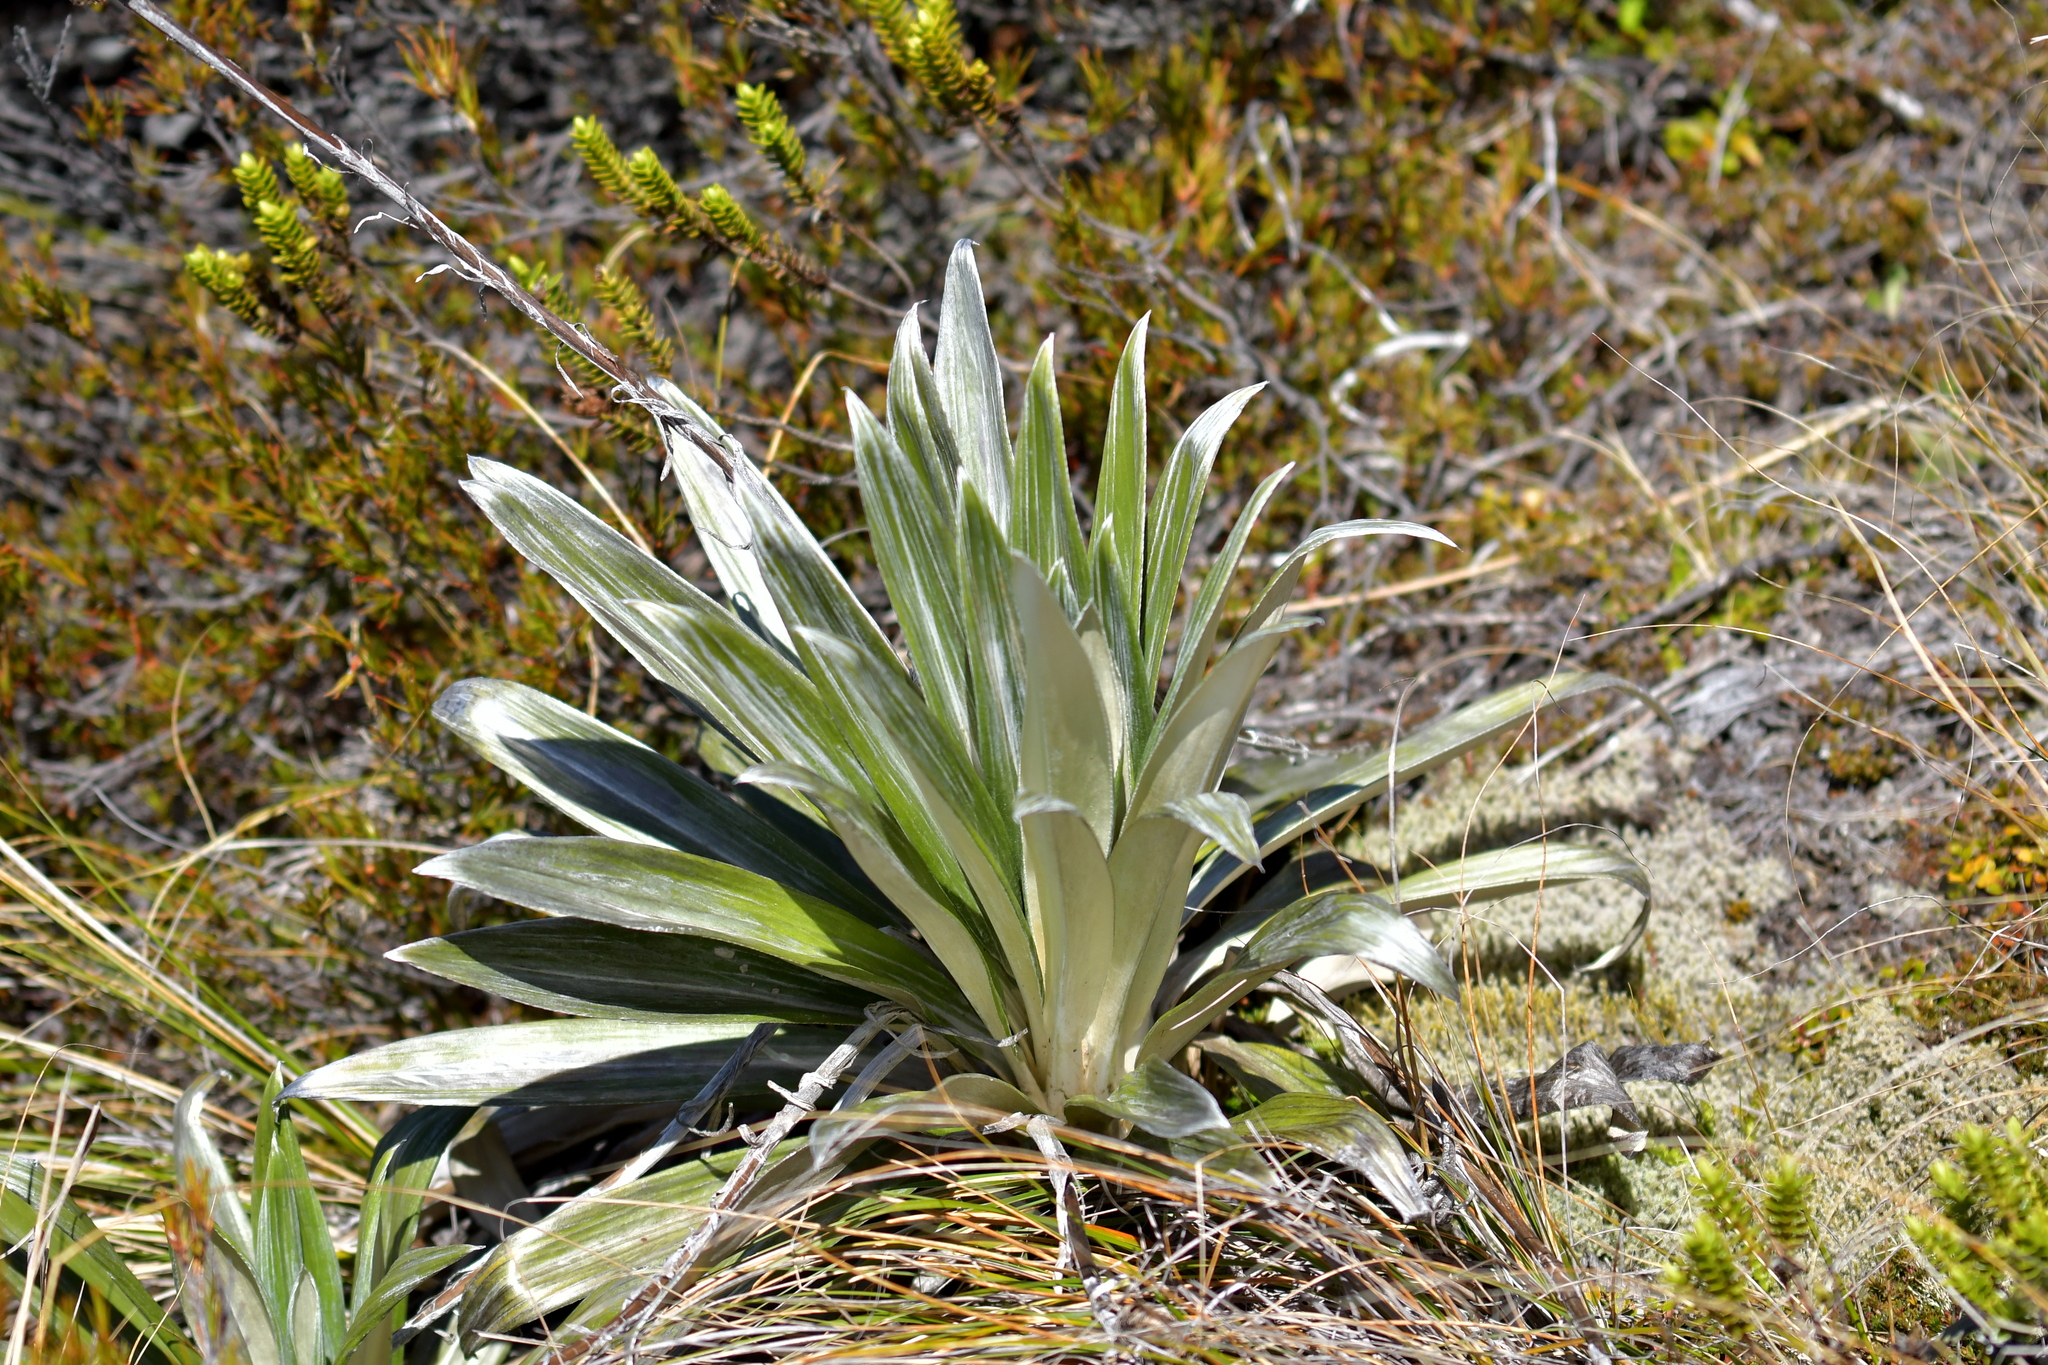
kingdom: Plantae
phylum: Tracheophyta
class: Magnoliopsida
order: Asterales
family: Asteraceae
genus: Celmisia
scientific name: Celmisia semicordata
